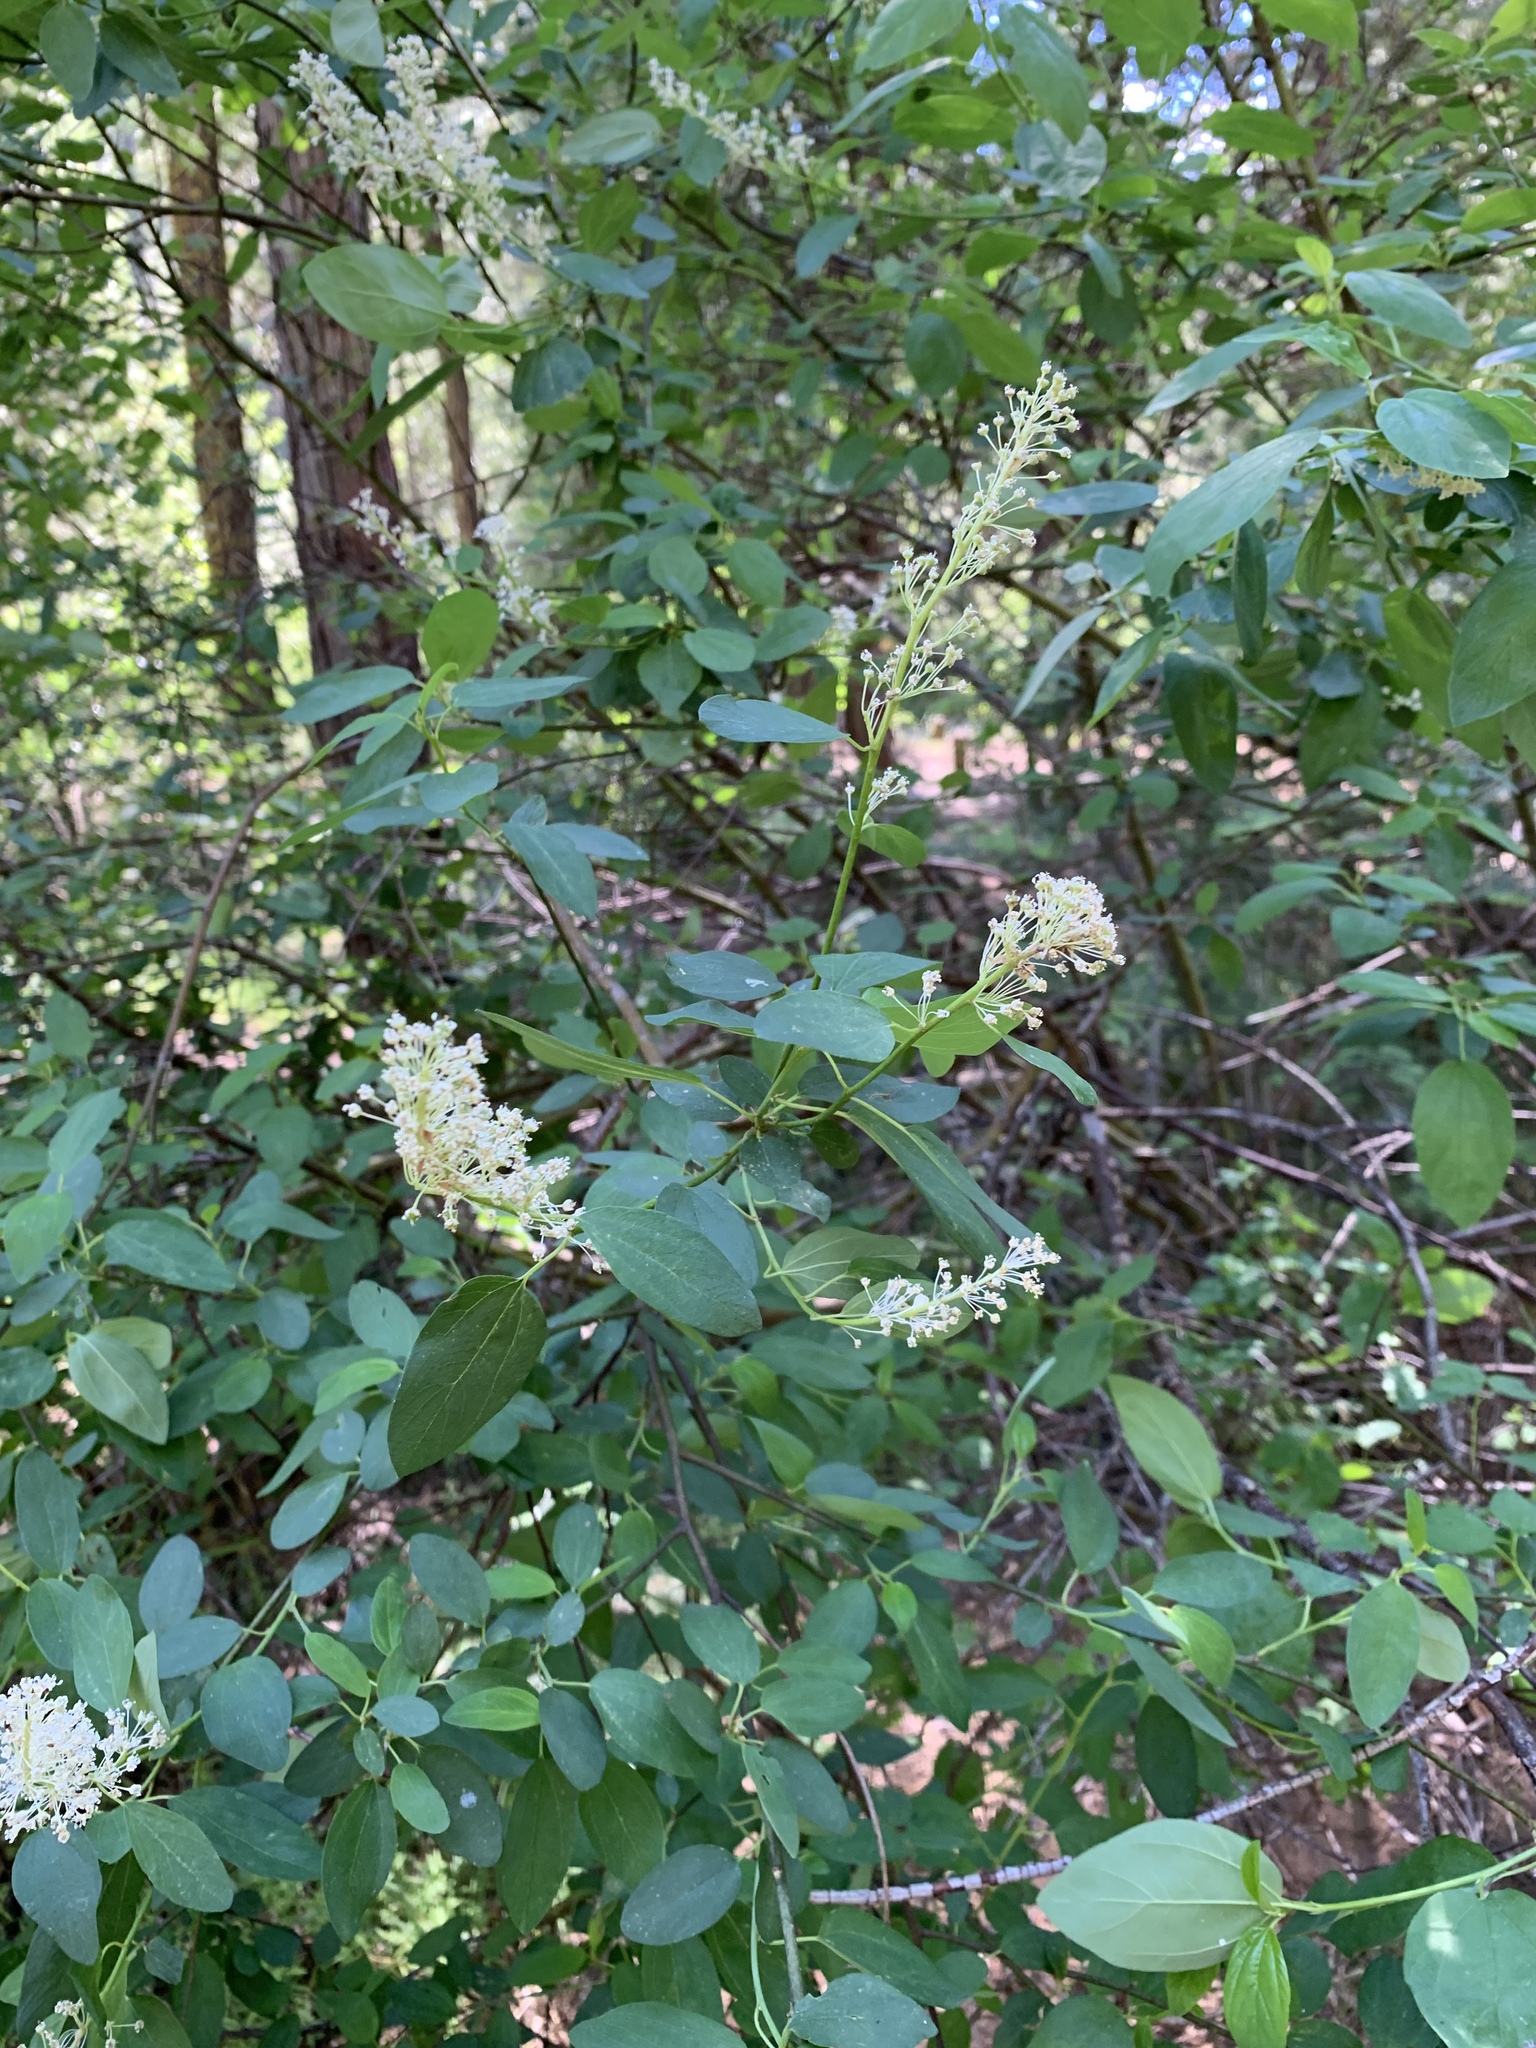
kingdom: Plantae
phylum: Tracheophyta
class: Magnoliopsida
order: Rosales
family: Rhamnaceae
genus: Ceanothus
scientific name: Ceanothus integerrimus
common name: Deerbrush ceanothus
